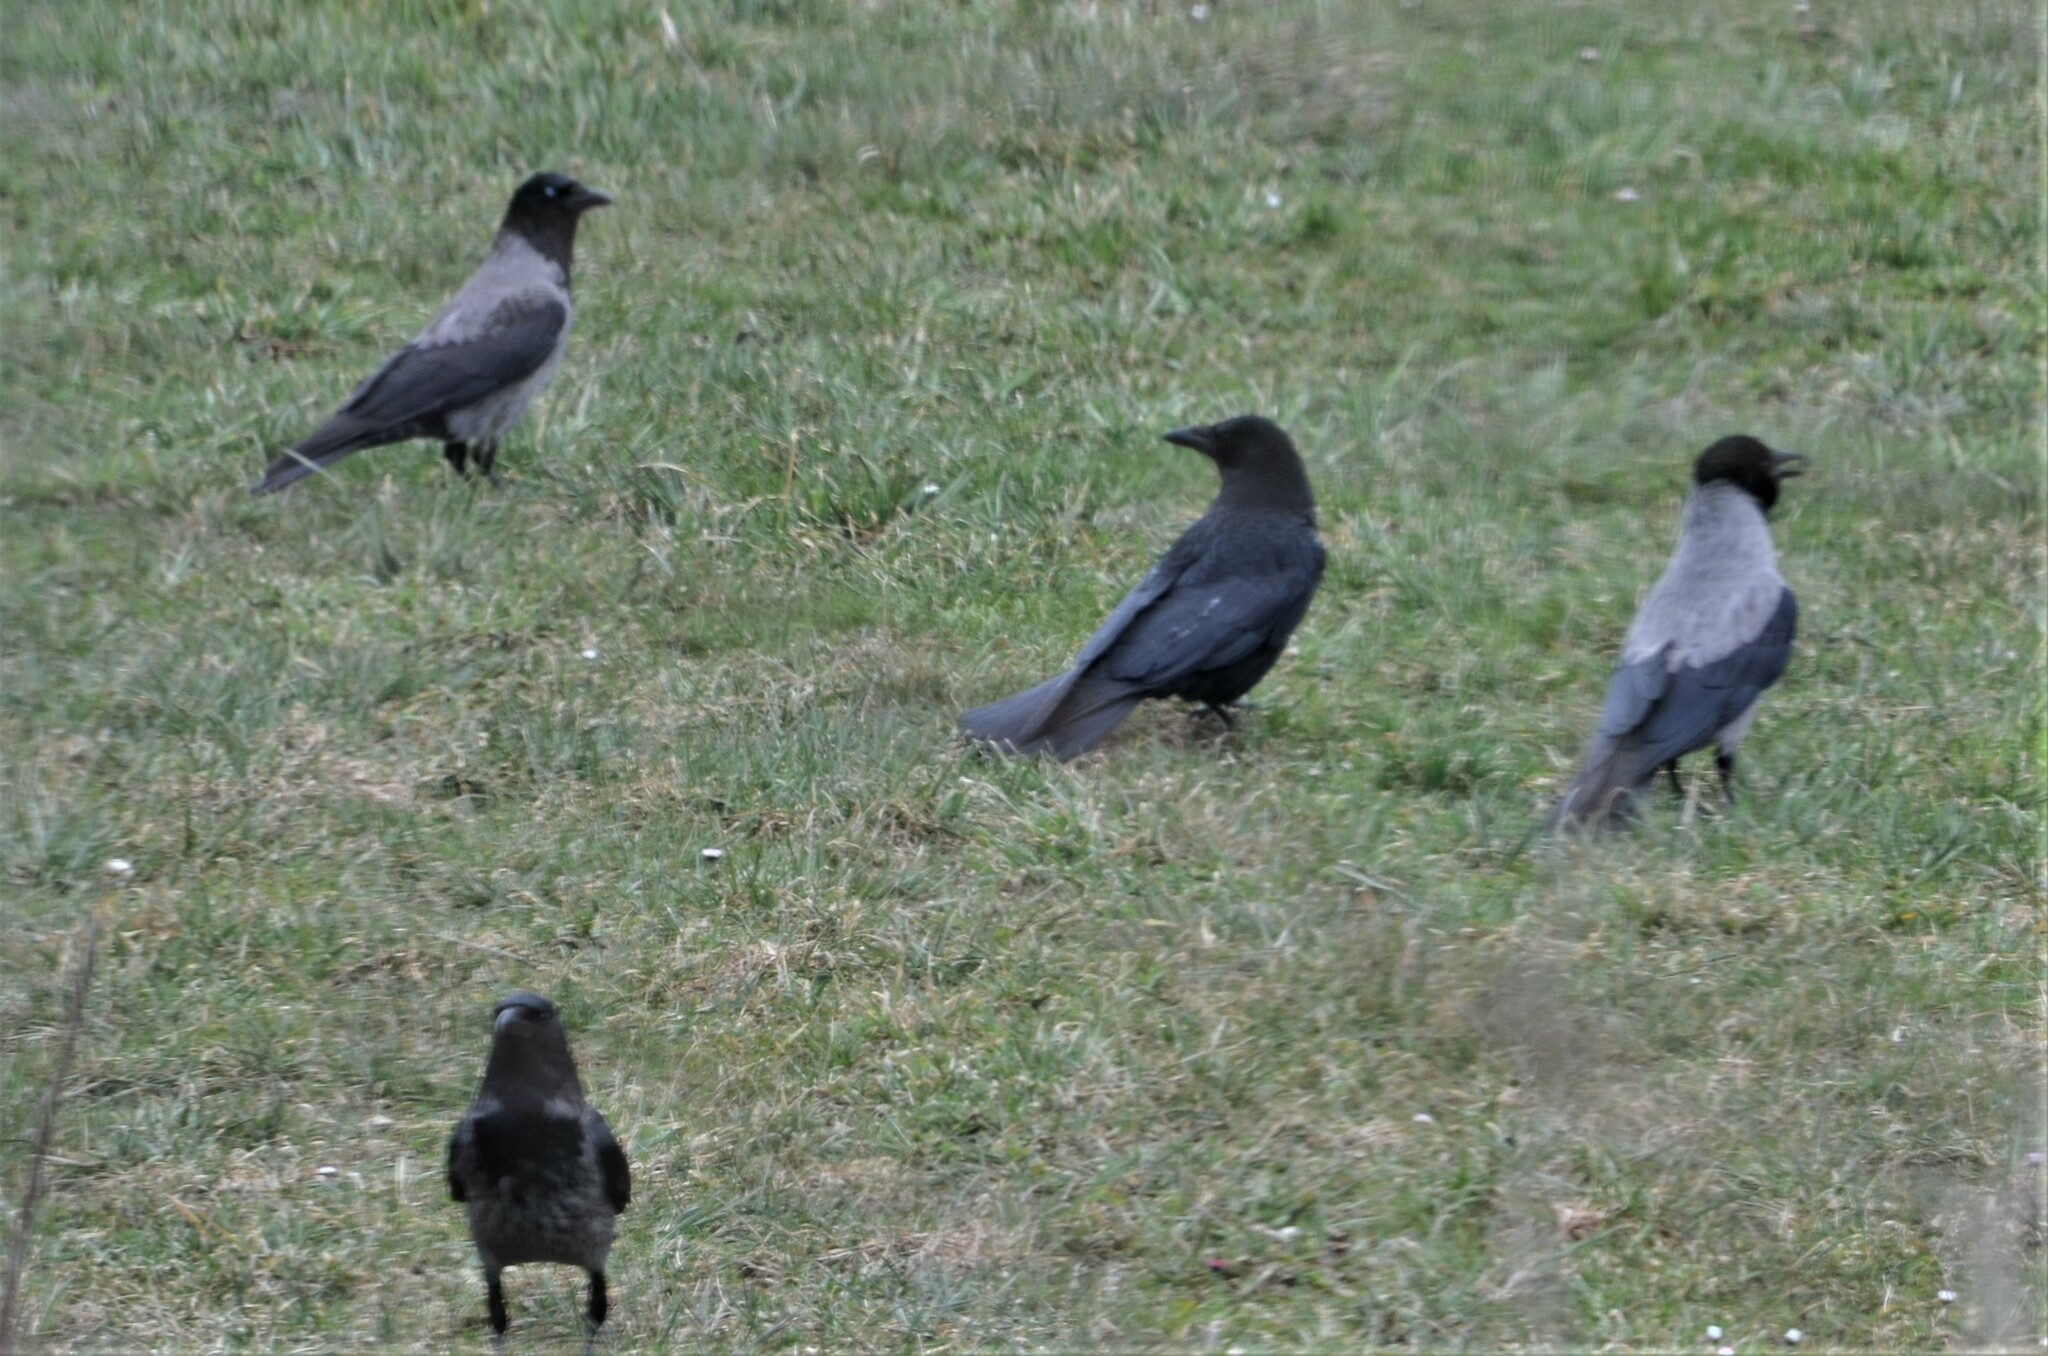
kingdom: Animalia
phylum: Chordata
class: Aves
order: Passeriformes
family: Corvidae
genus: Corvus
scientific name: Corvus cornix
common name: Hooded crow
